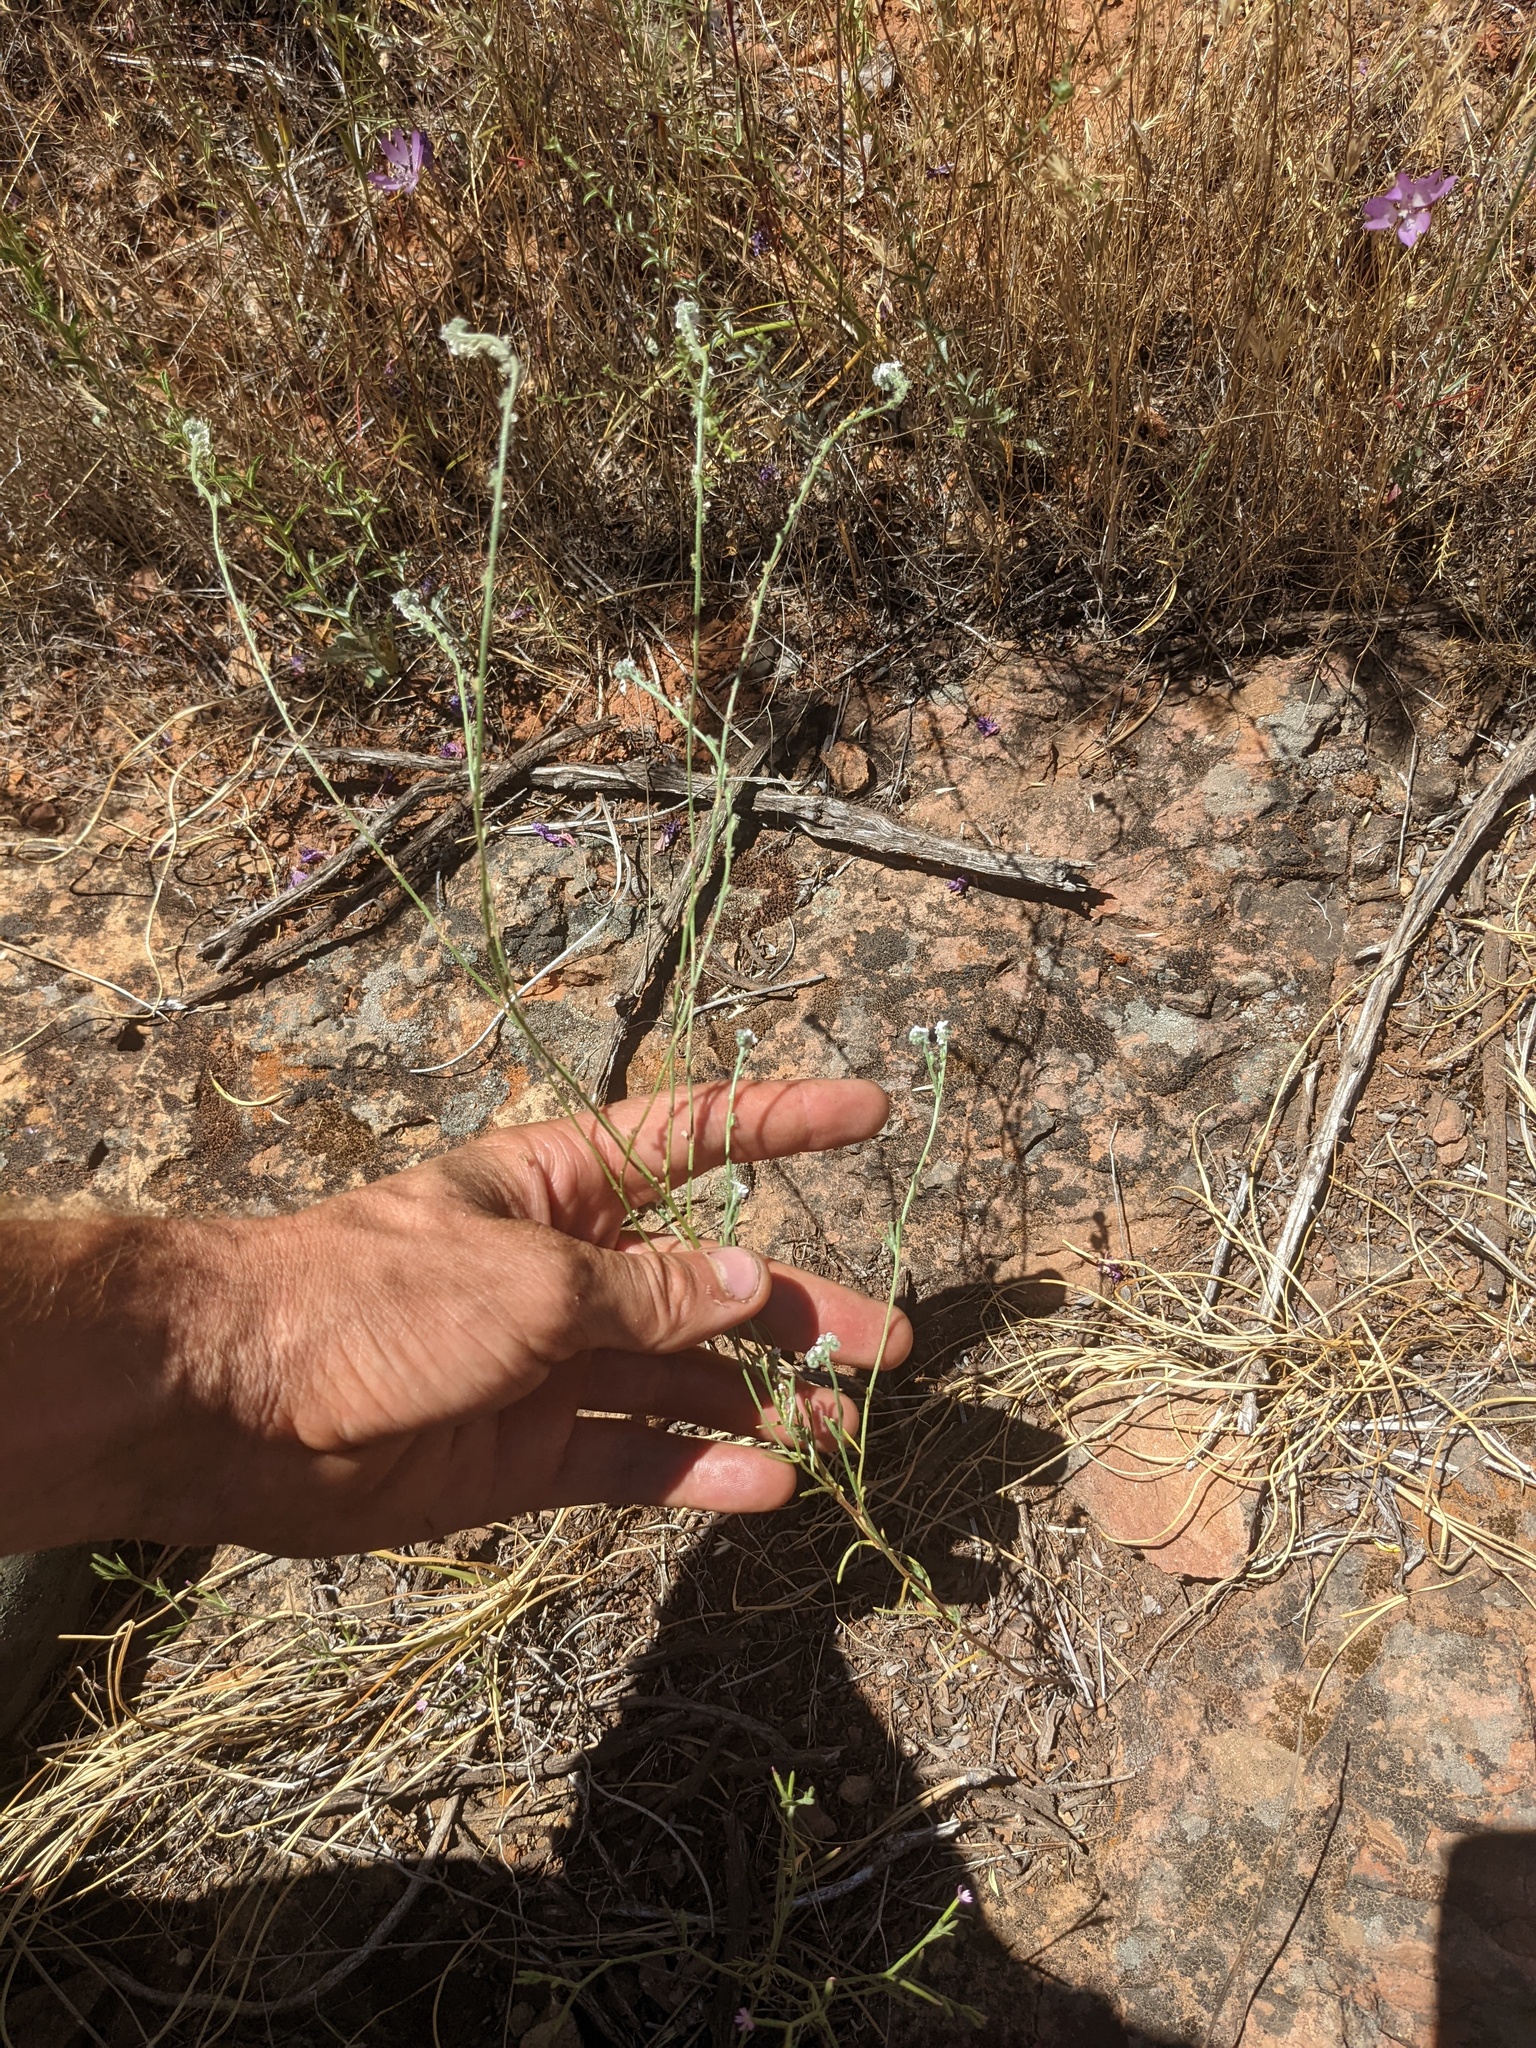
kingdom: Plantae
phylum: Tracheophyta
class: Magnoliopsida
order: Boraginales
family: Boraginaceae
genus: Cryptantha
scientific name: Cryptantha flaccida
